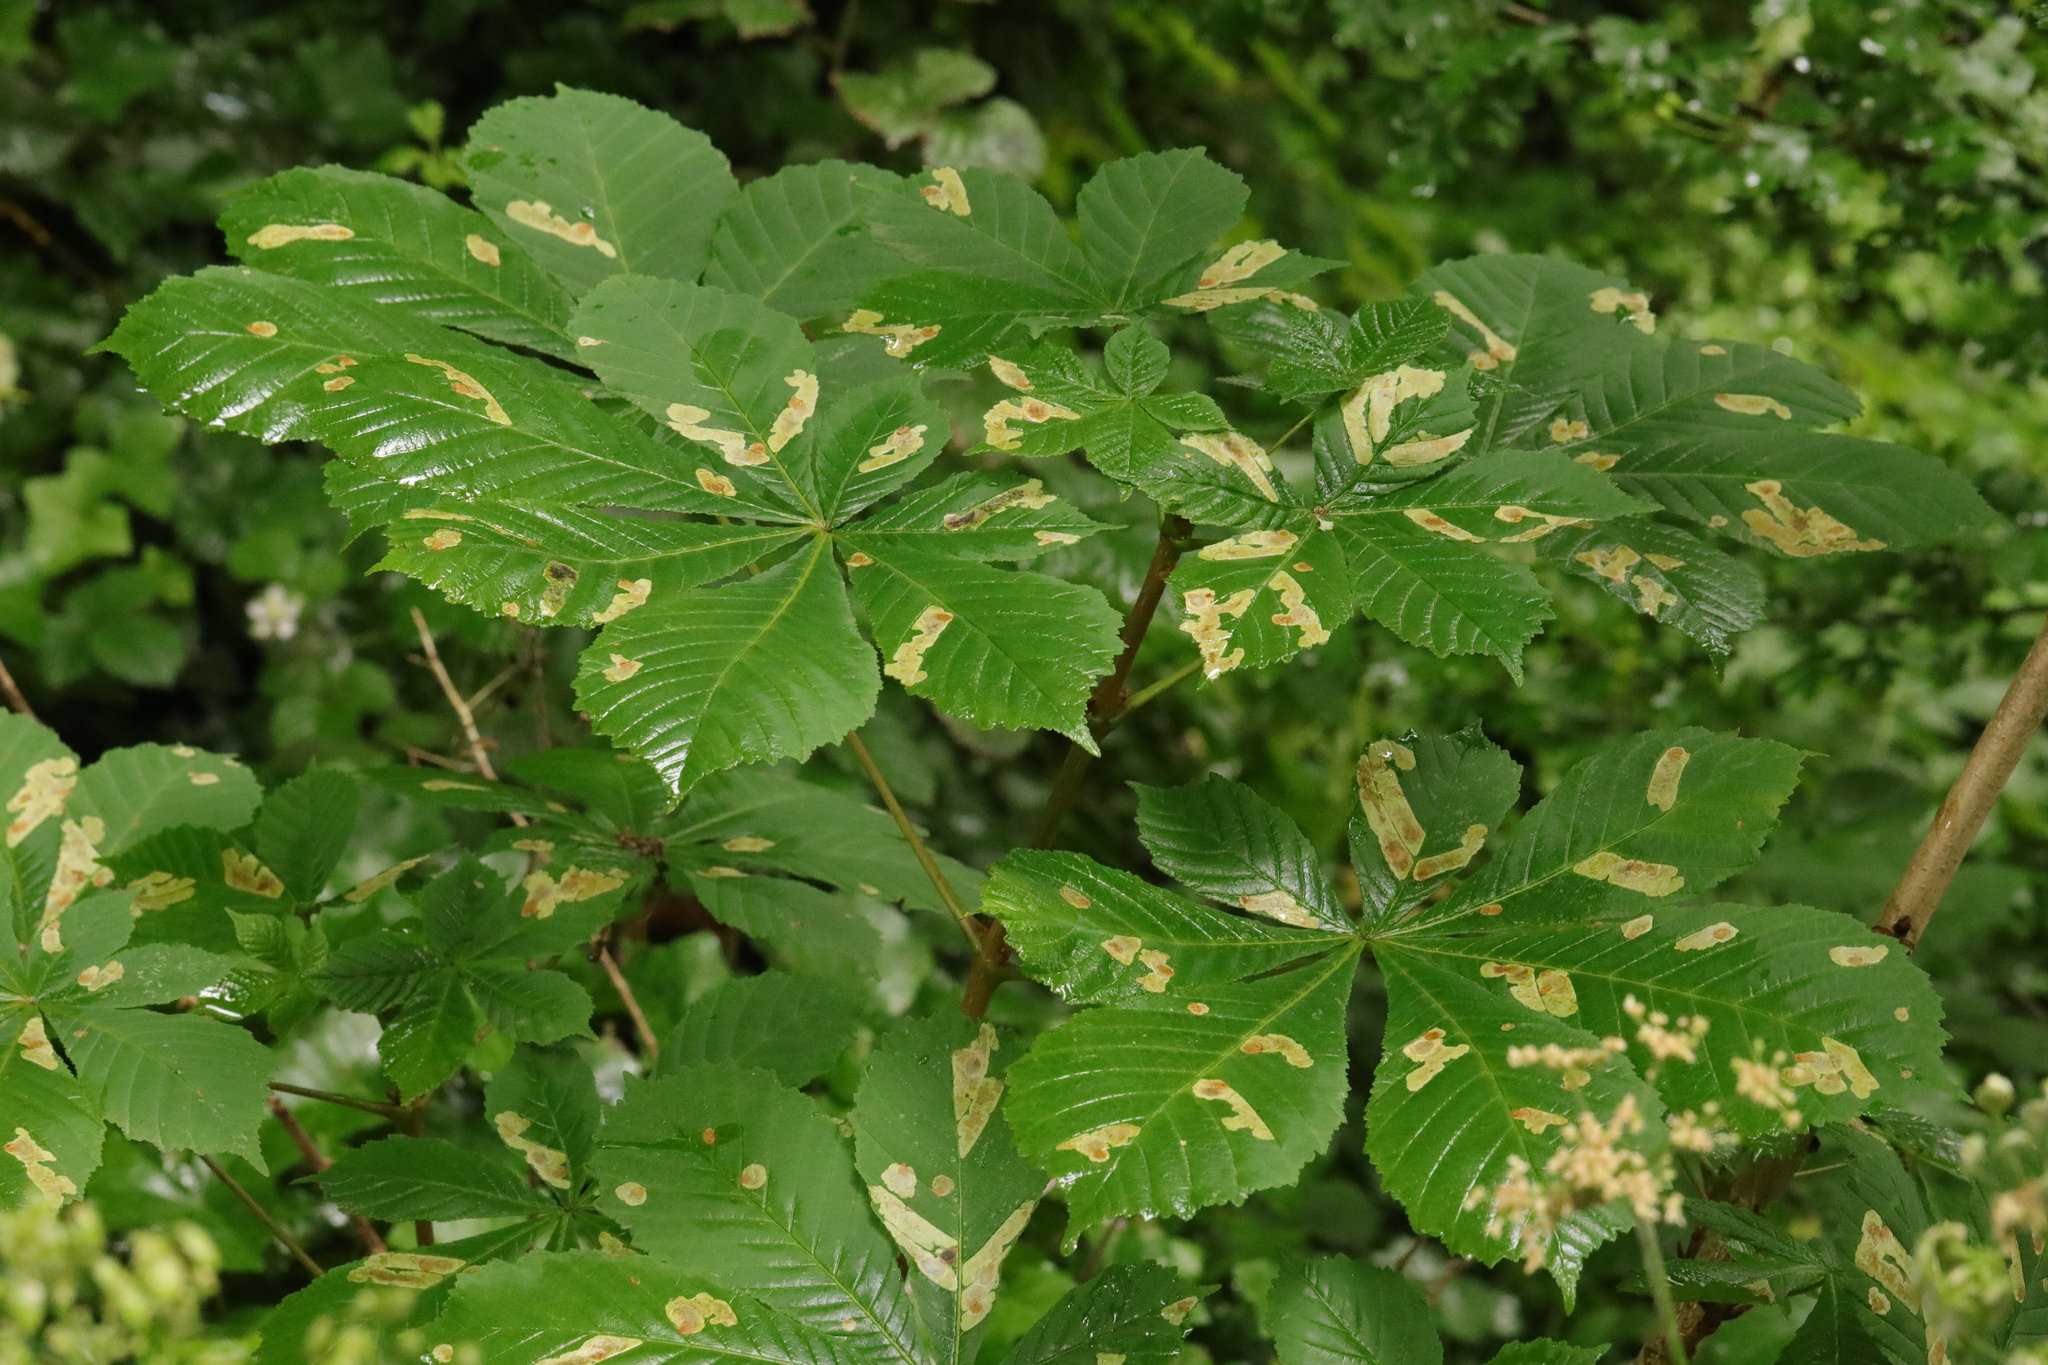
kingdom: Animalia
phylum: Arthropoda
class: Insecta
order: Lepidoptera
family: Gracillariidae
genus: Cameraria
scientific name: Cameraria ohridella
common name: Horse-chestnut leaf-miner
